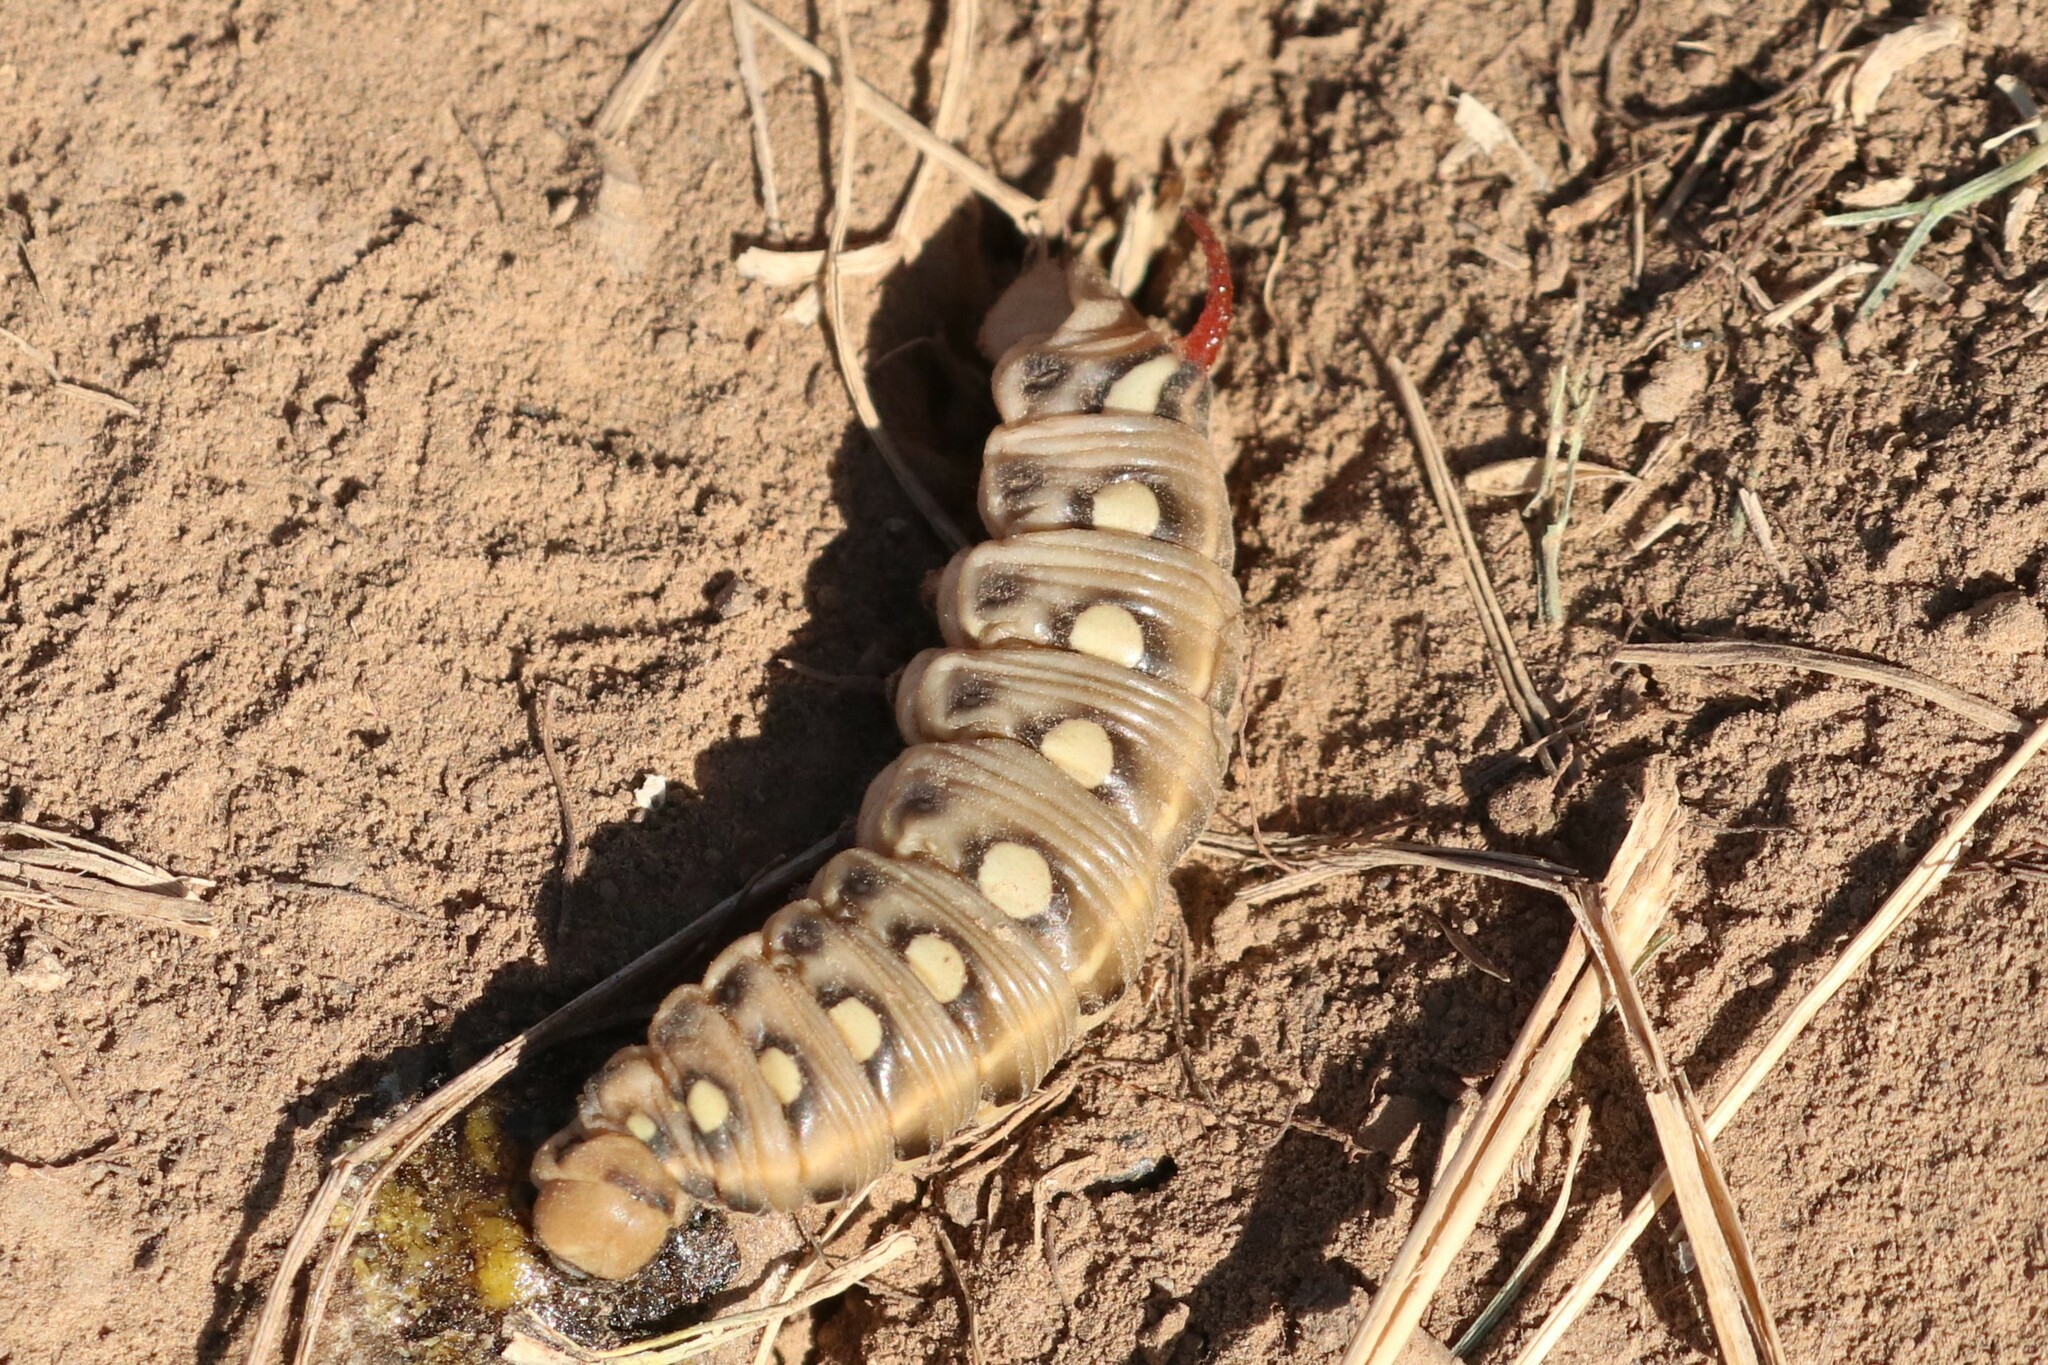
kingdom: Animalia
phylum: Arthropoda
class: Insecta
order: Lepidoptera
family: Sphingidae
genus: Hyles
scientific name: Hyles gallii
